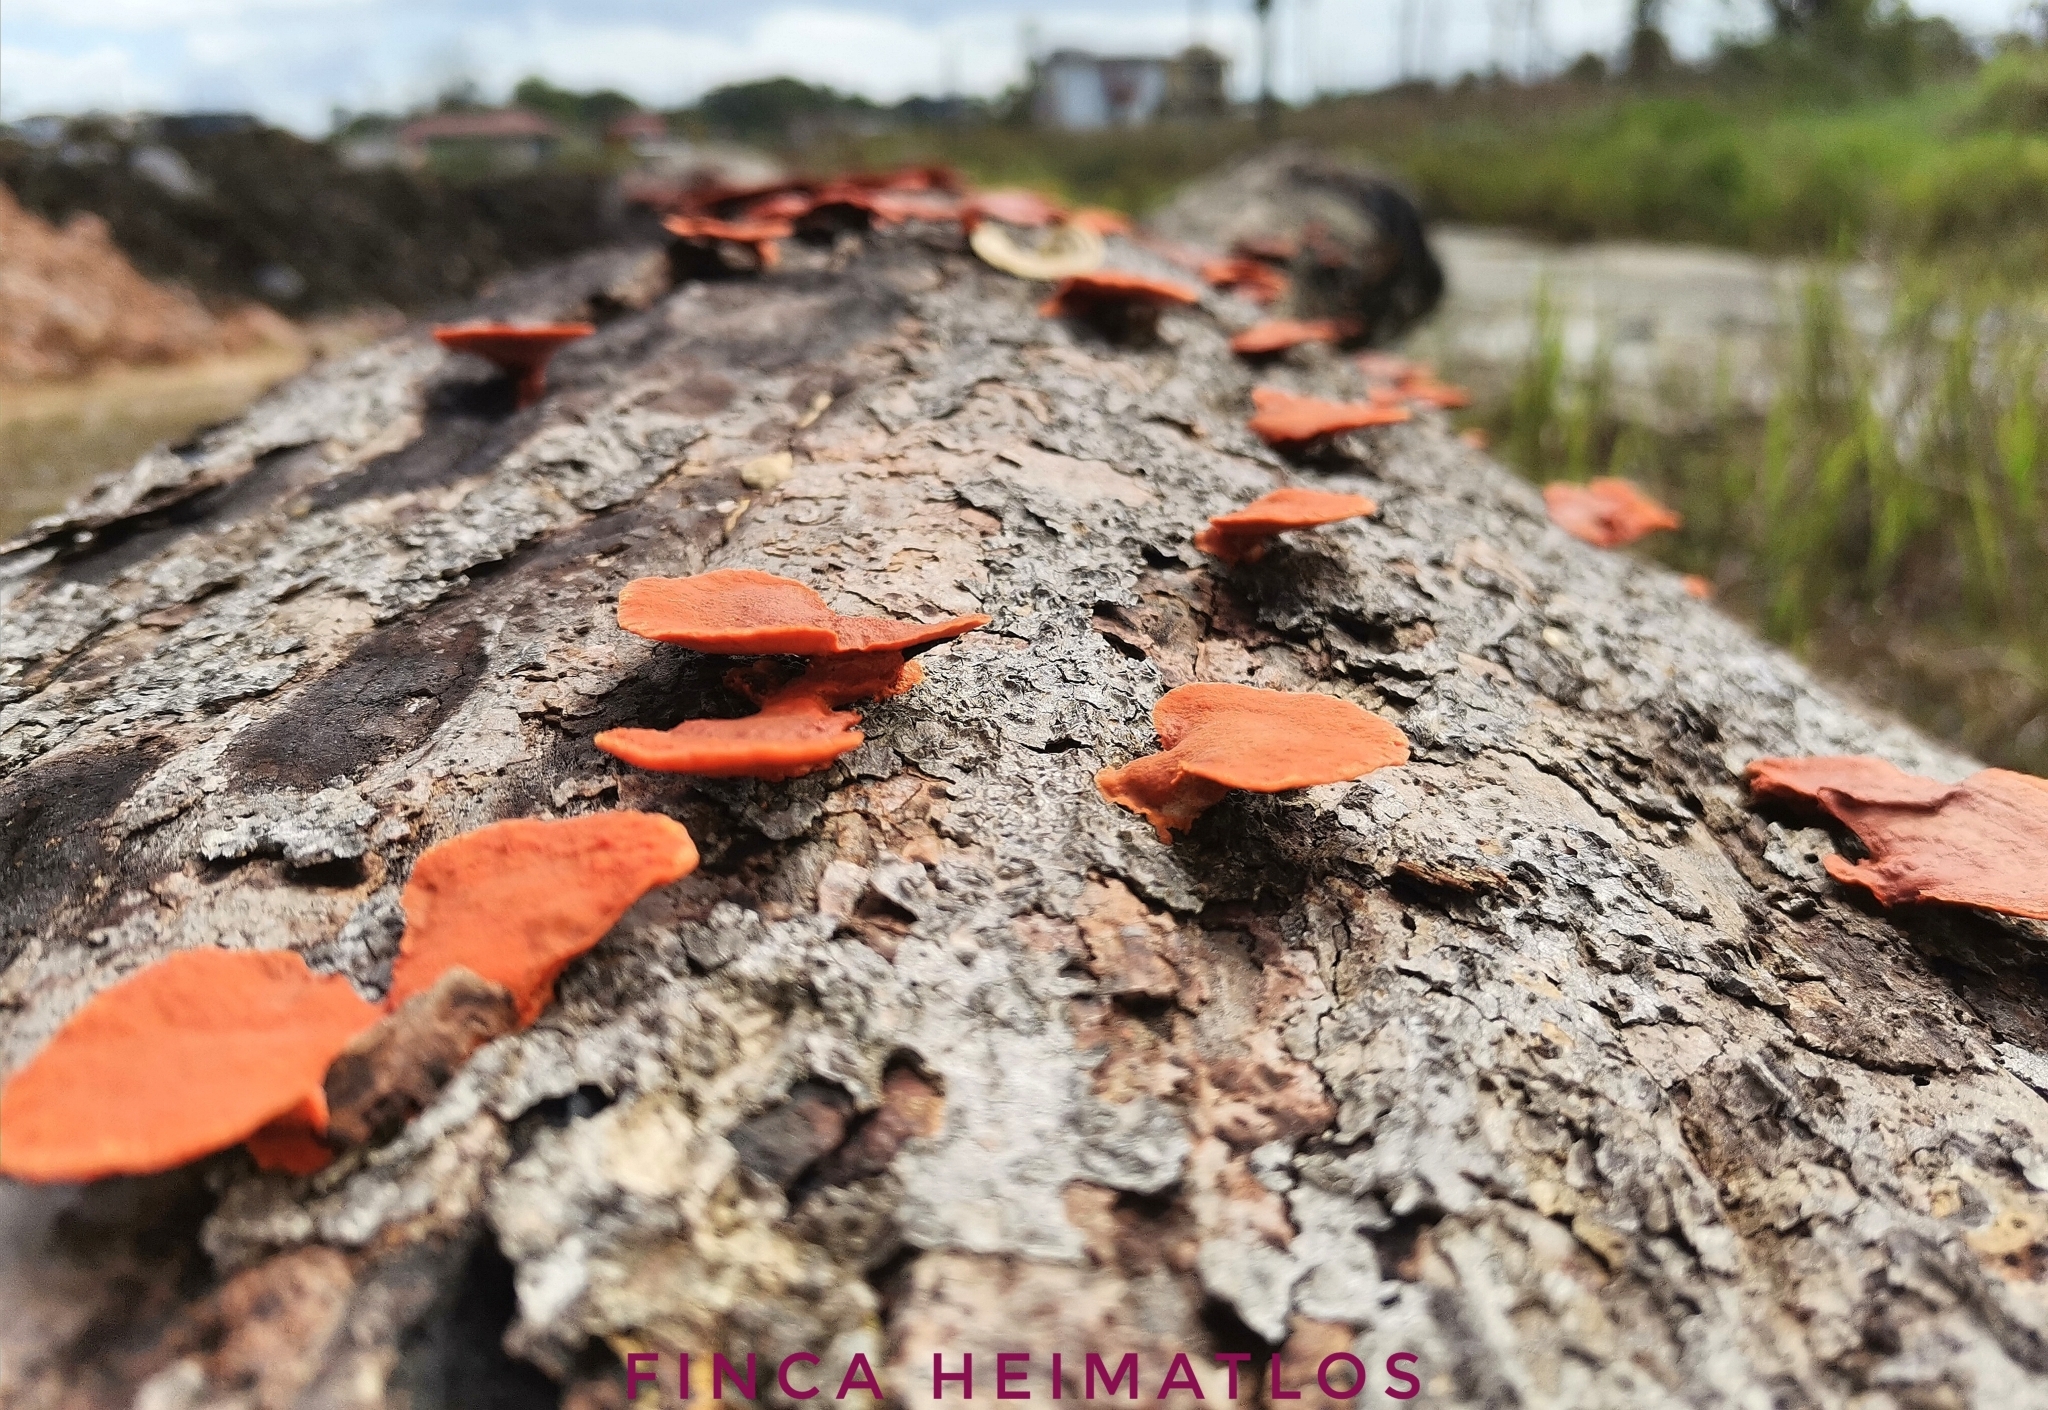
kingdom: Fungi
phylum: Basidiomycota
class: Agaricomycetes
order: Polyporales
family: Polyporaceae
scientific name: Polyporaceae
